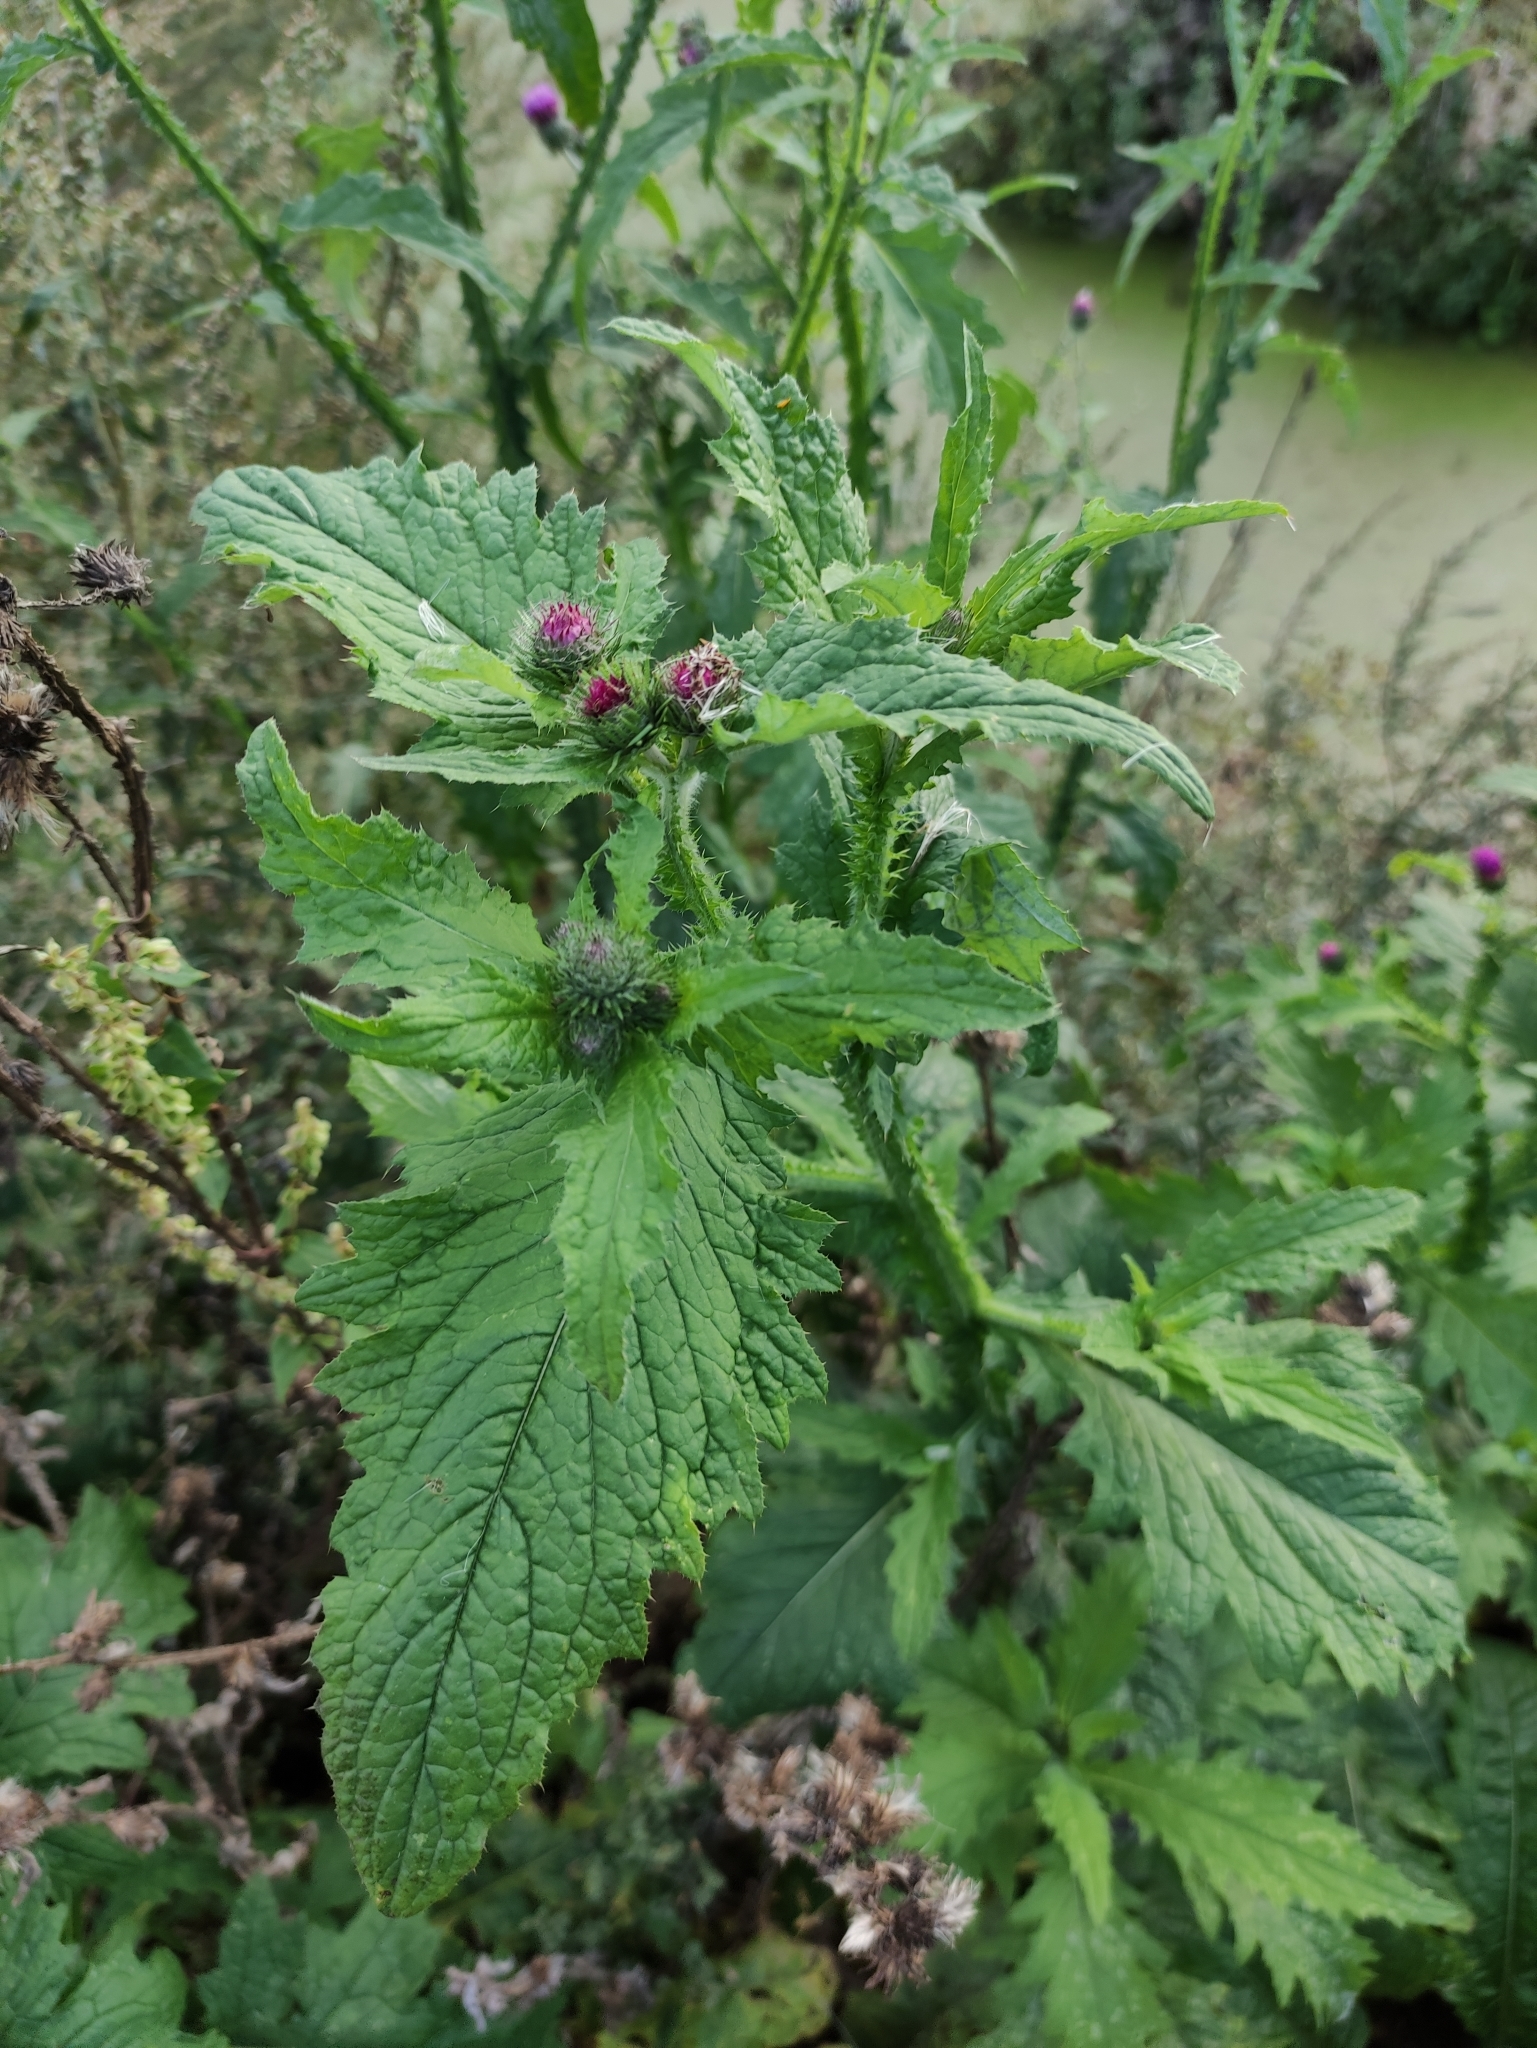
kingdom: Plantae
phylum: Tracheophyta
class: Magnoliopsida
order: Asterales
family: Asteraceae
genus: Carduus
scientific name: Carduus crispus
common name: Welted thistle
